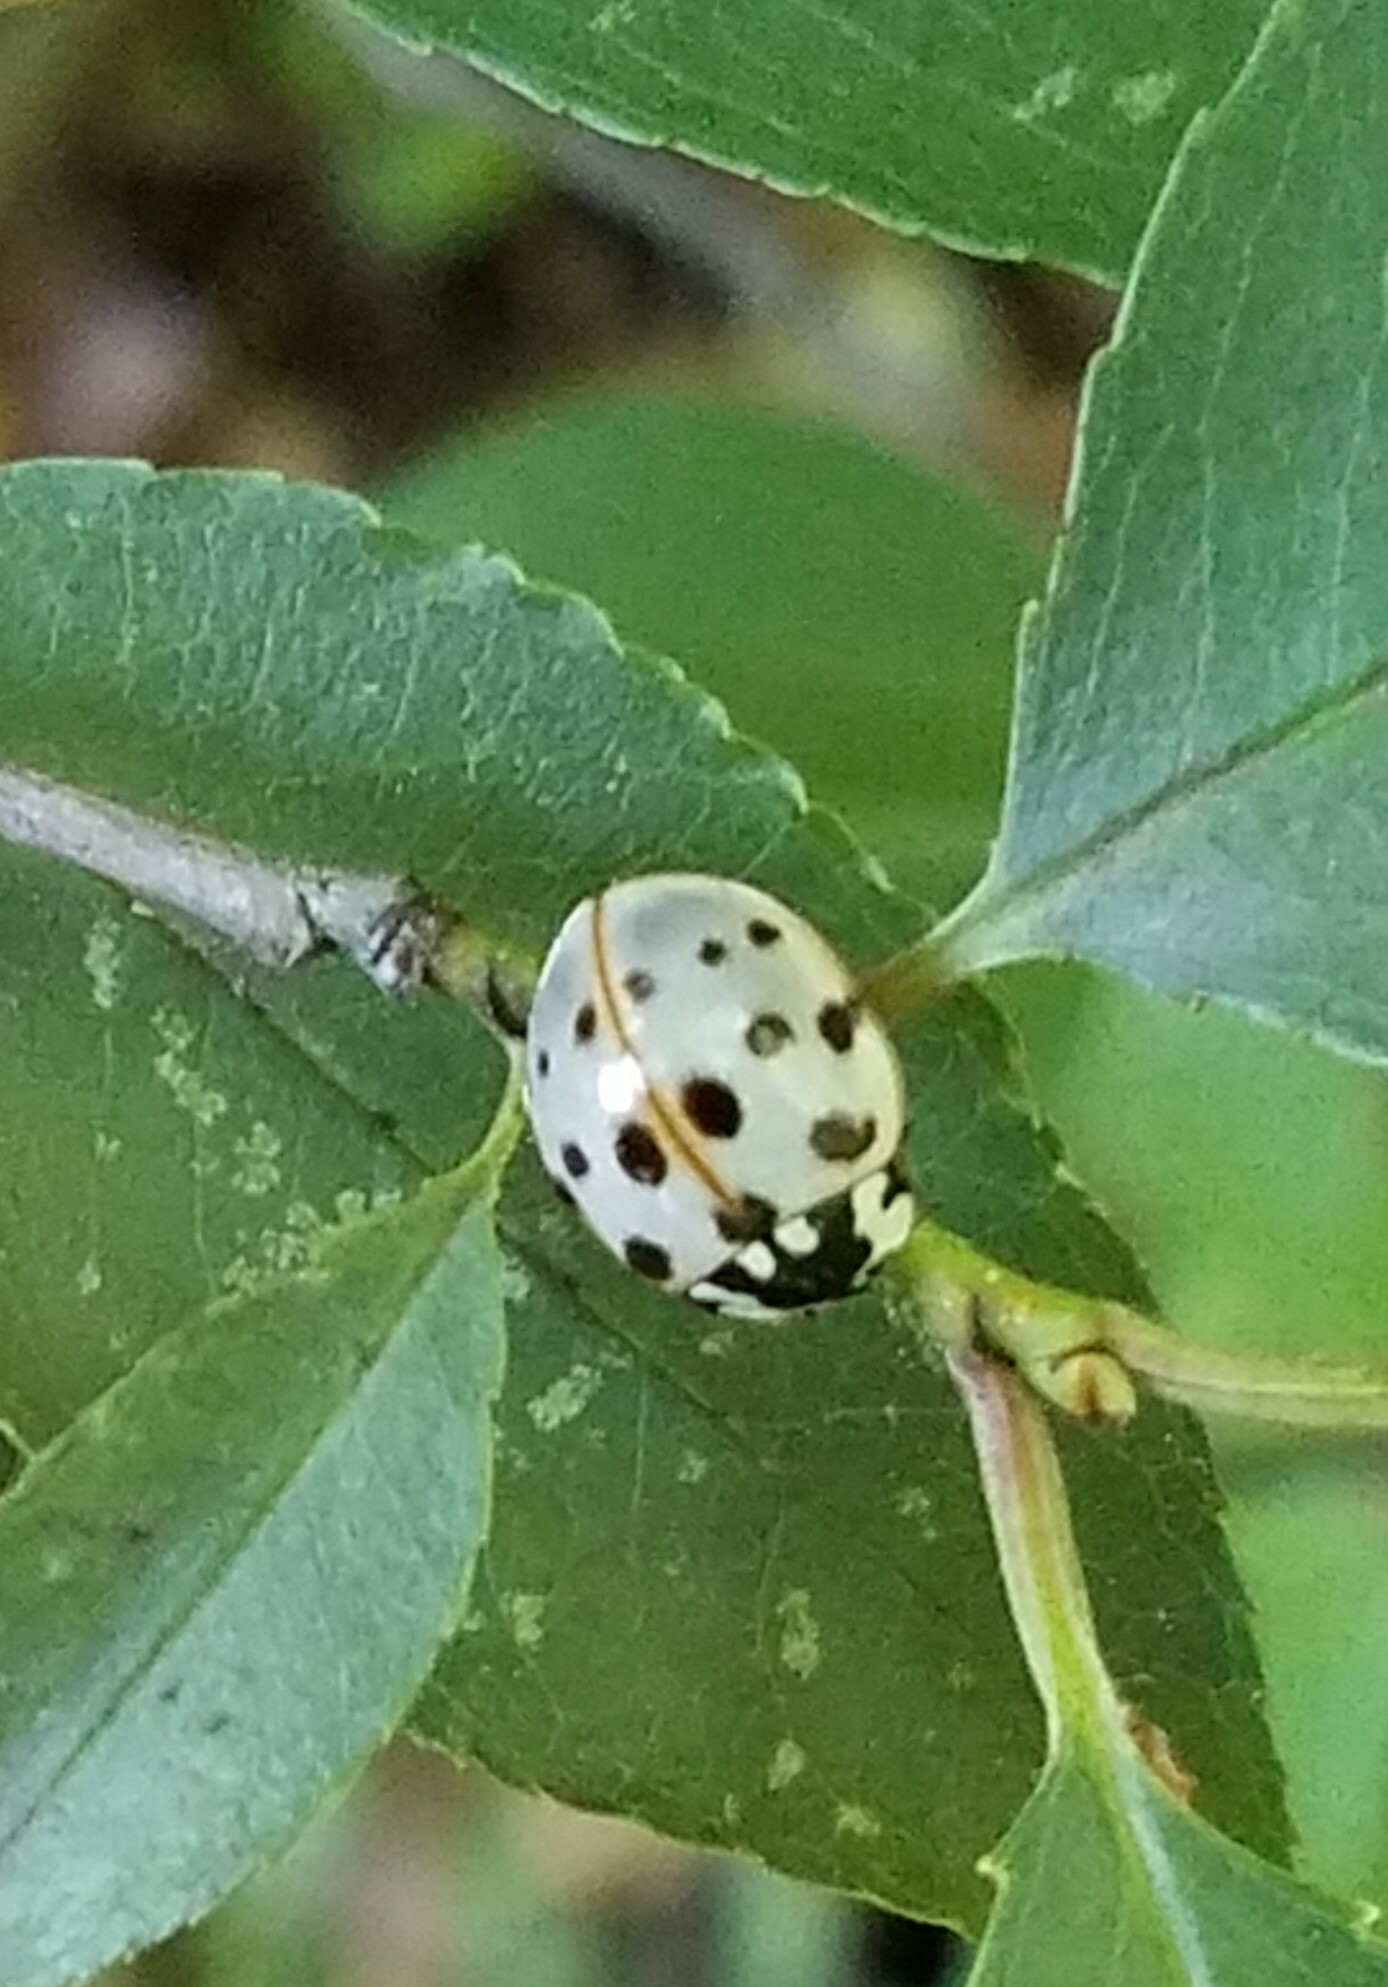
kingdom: Animalia
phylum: Arthropoda
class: Insecta
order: Coleoptera
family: Coccinellidae
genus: Anatis
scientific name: Anatis labiculata
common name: Fifteen-spotted lady beetle
